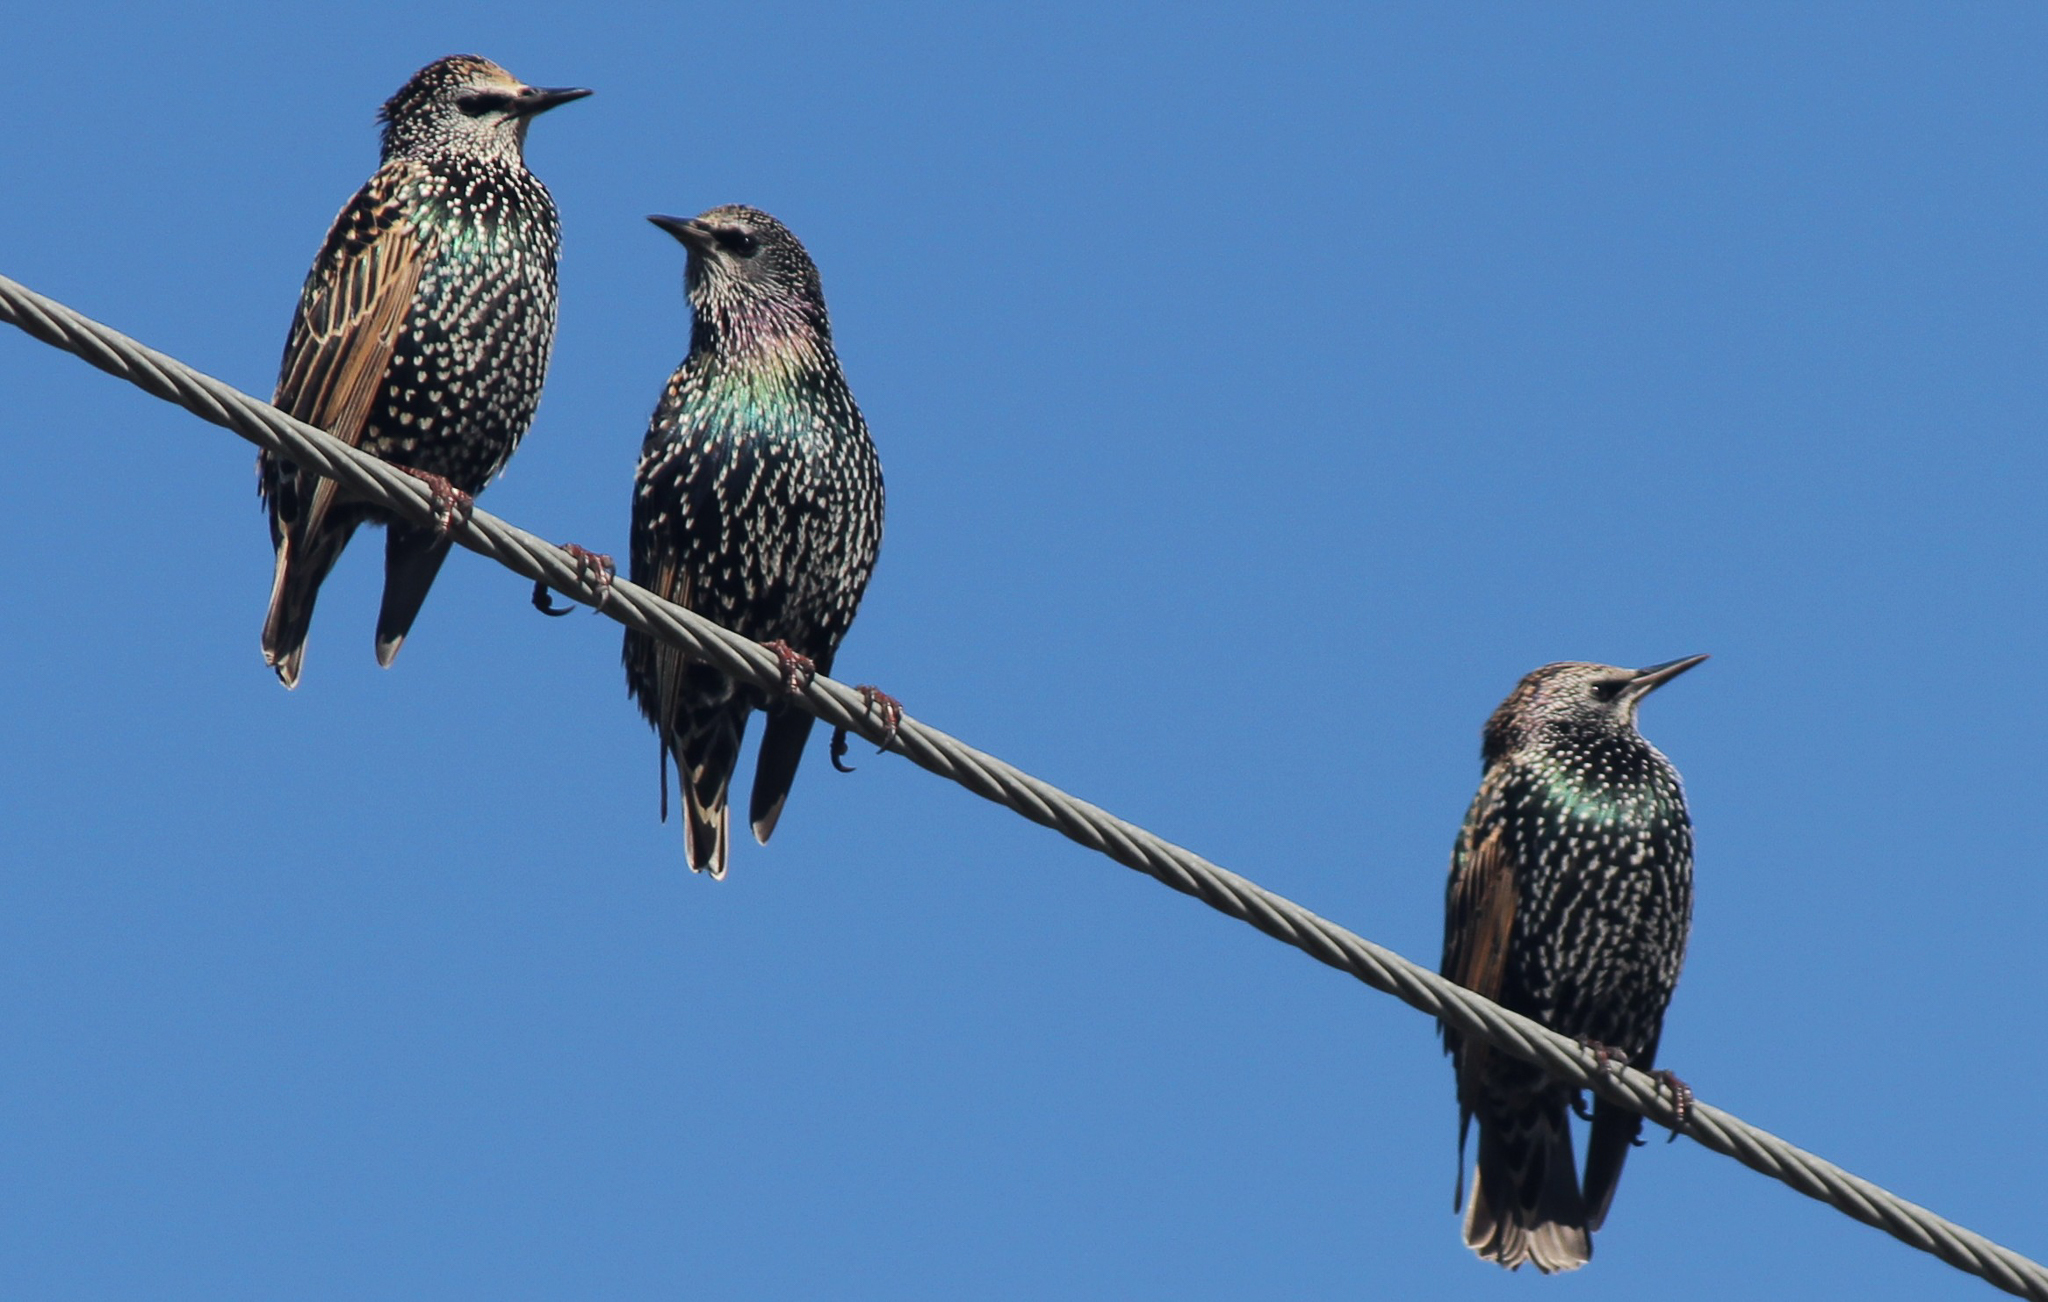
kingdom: Animalia
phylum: Chordata
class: Aves
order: Passeriformes
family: Sturnidae
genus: Sturnus
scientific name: Sturnus vulgaris
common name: Common starling
